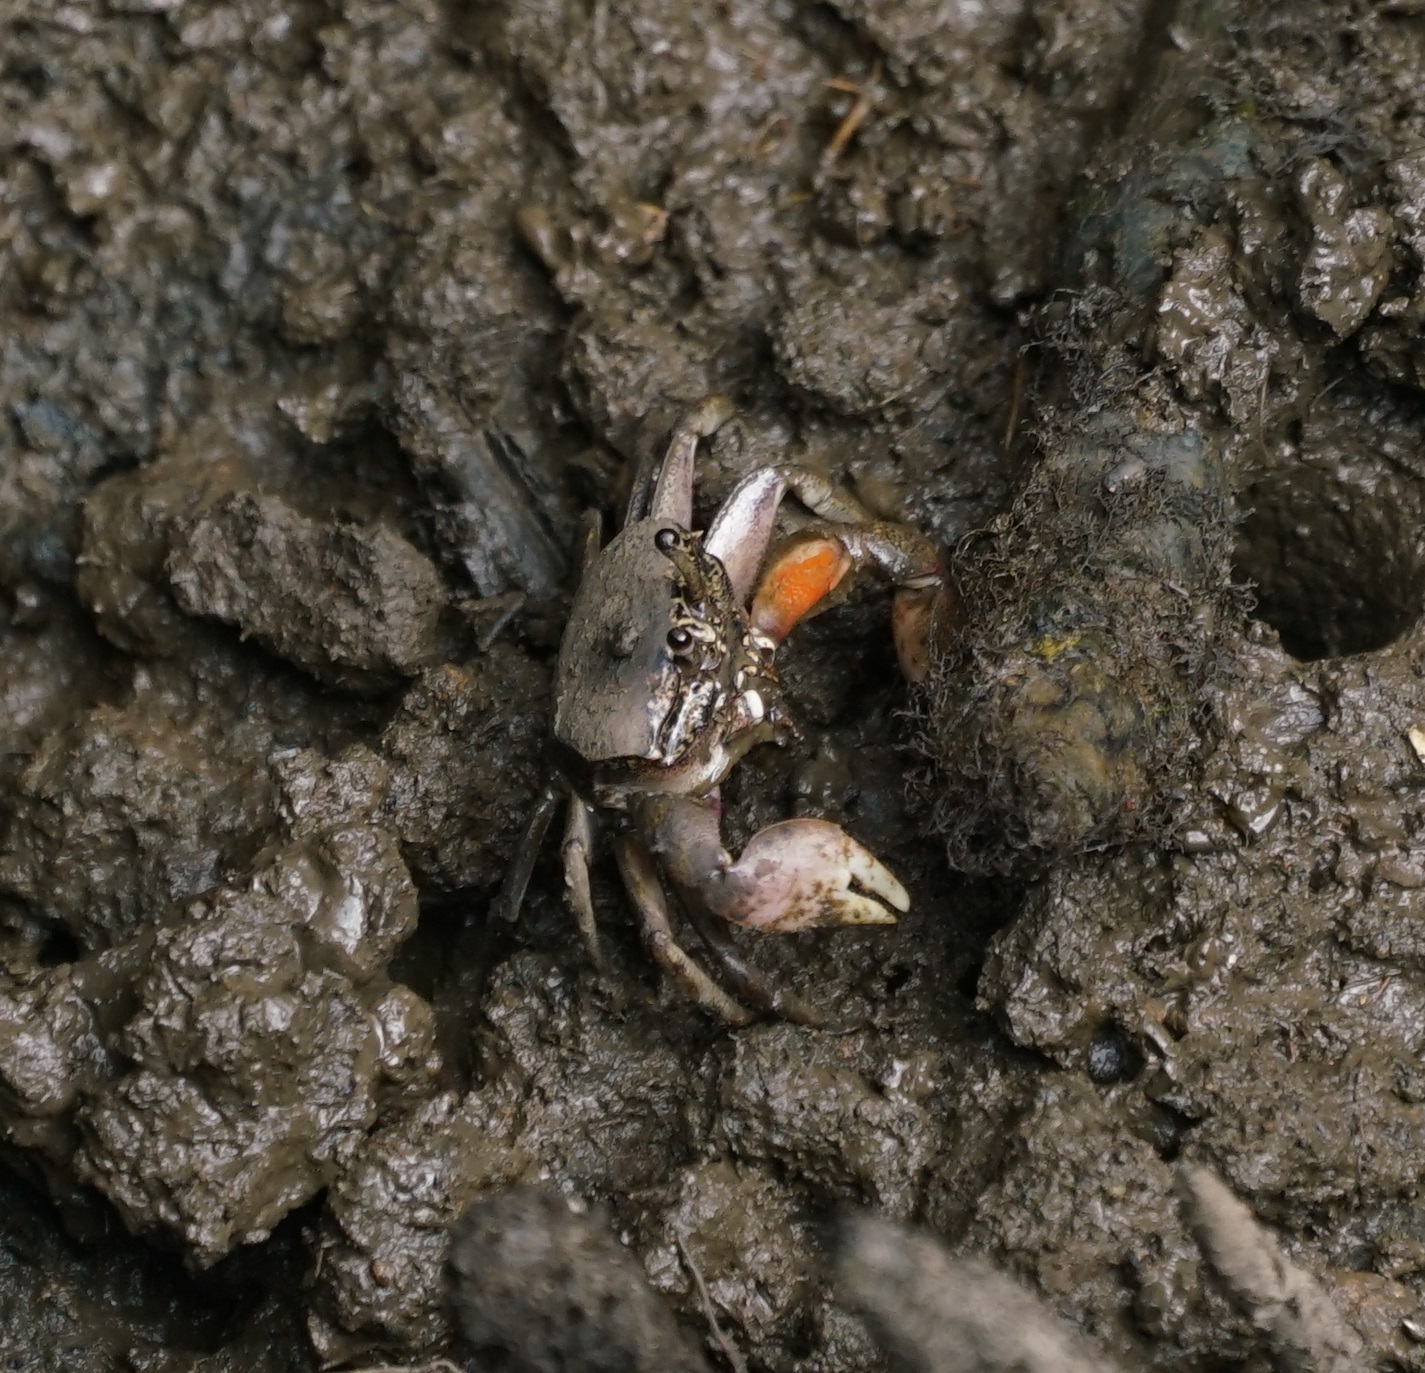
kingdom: Animalia
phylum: Arthropoda
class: Malacostraca
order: Decapoda
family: Heloeciidae
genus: Heloecius
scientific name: Heloecius cordiformis
